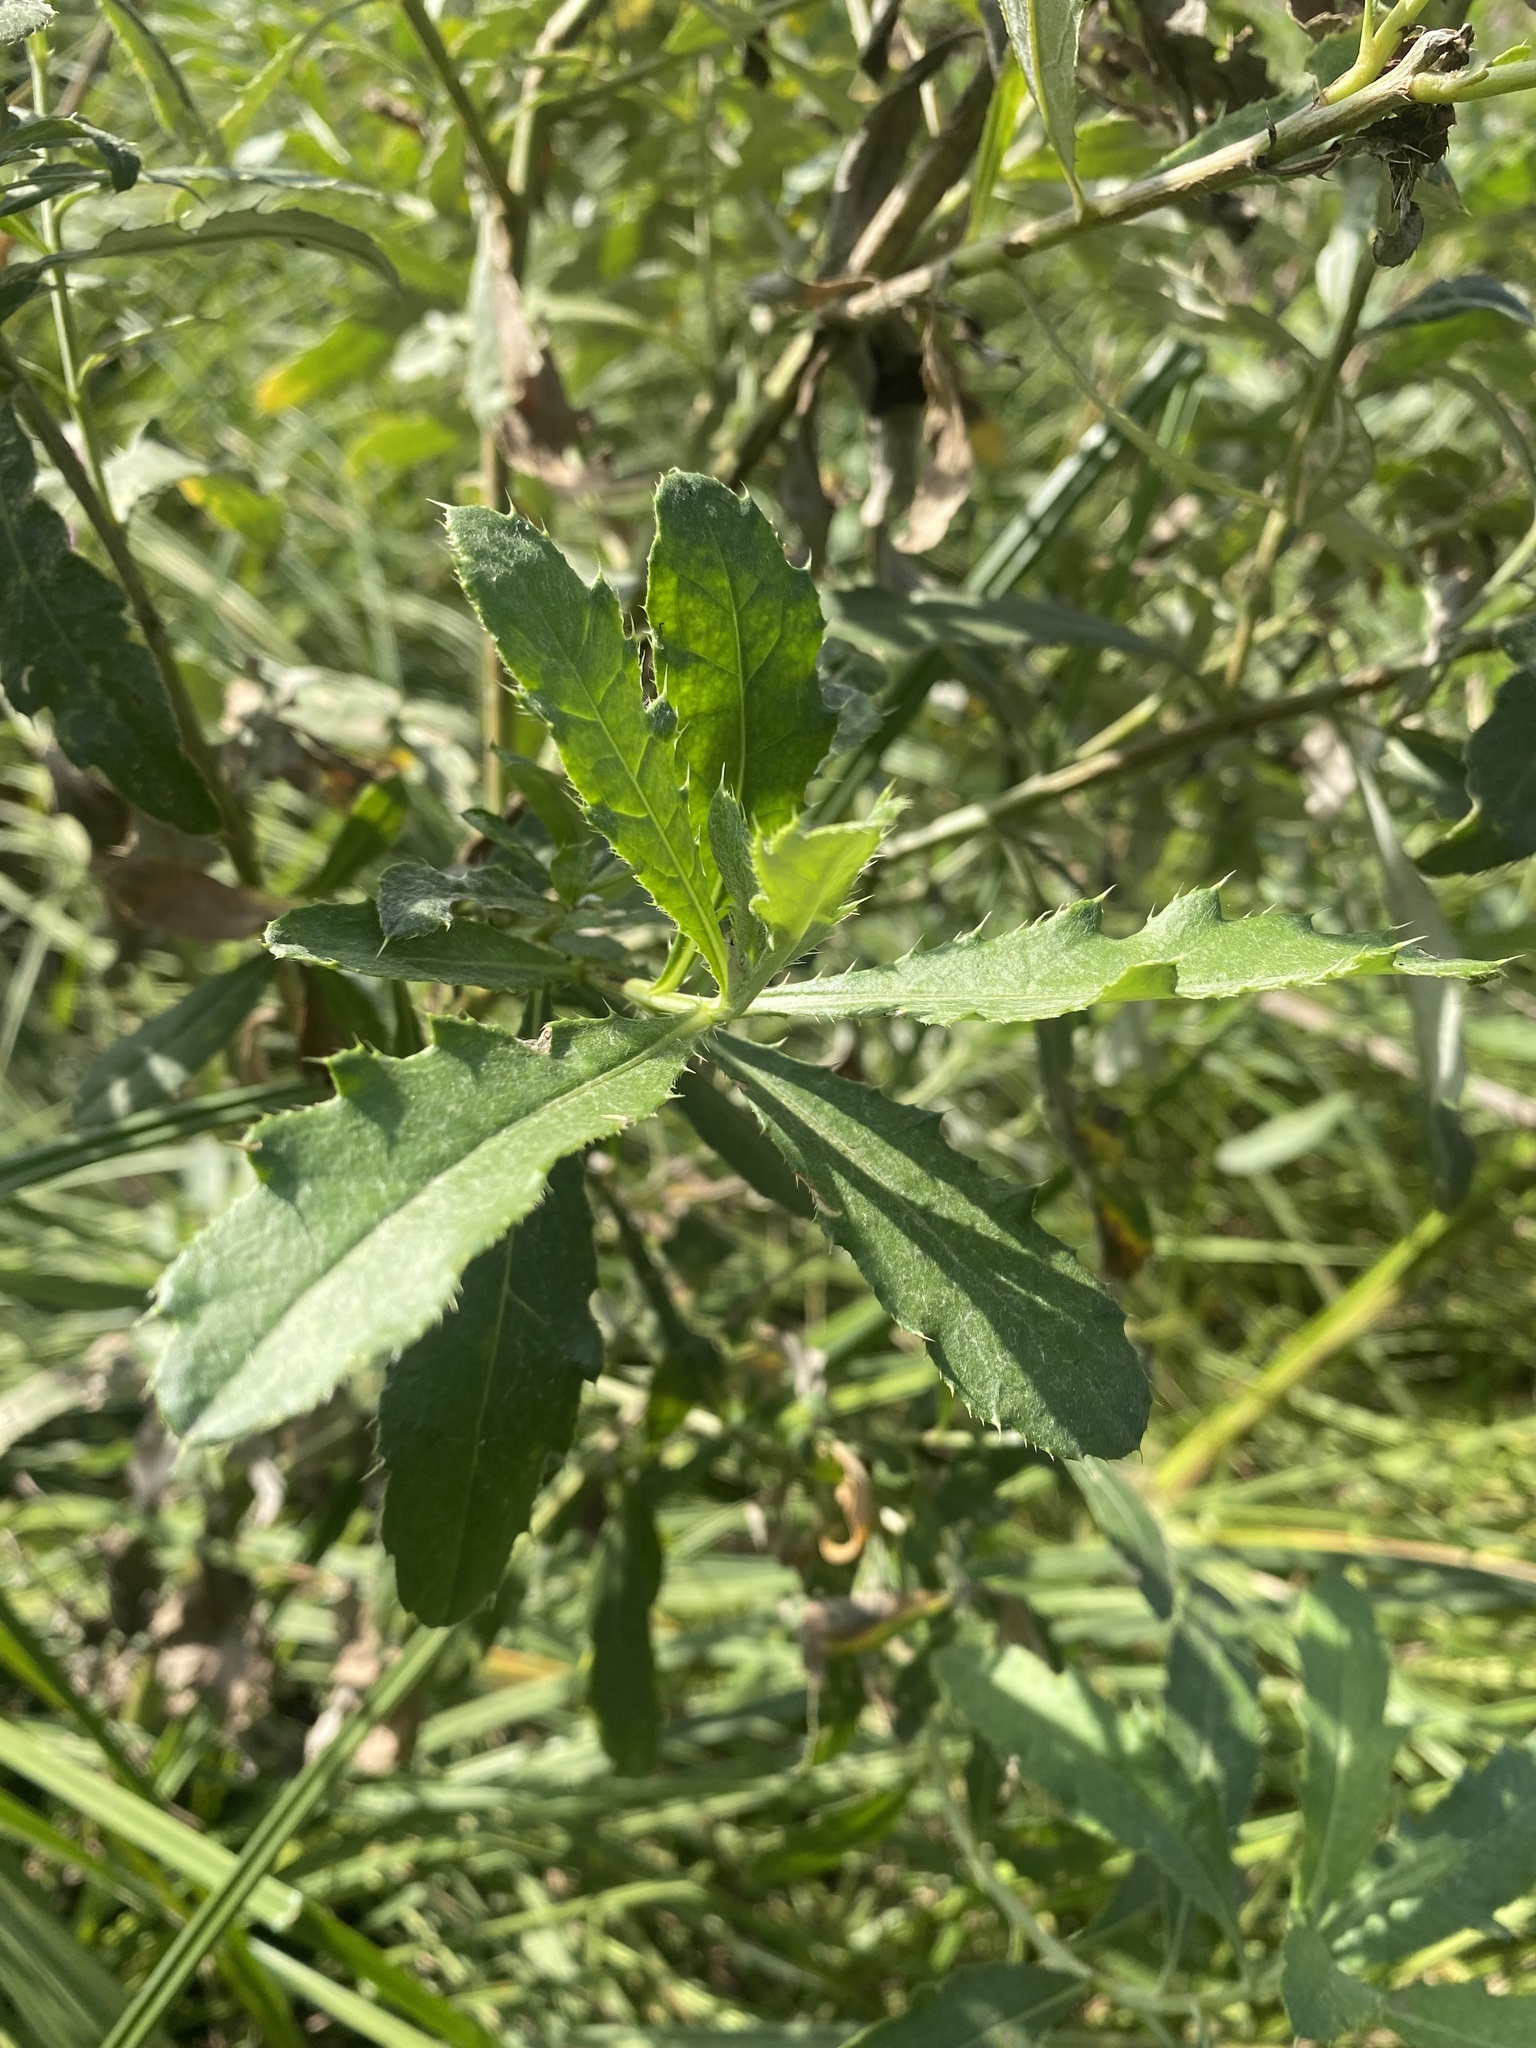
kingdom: Plantae
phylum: Tracheophyta
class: Magnoliopsida
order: Asterales
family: Asteraceae
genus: Cirsium
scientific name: Cirsium arvense
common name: Creeping thistle
